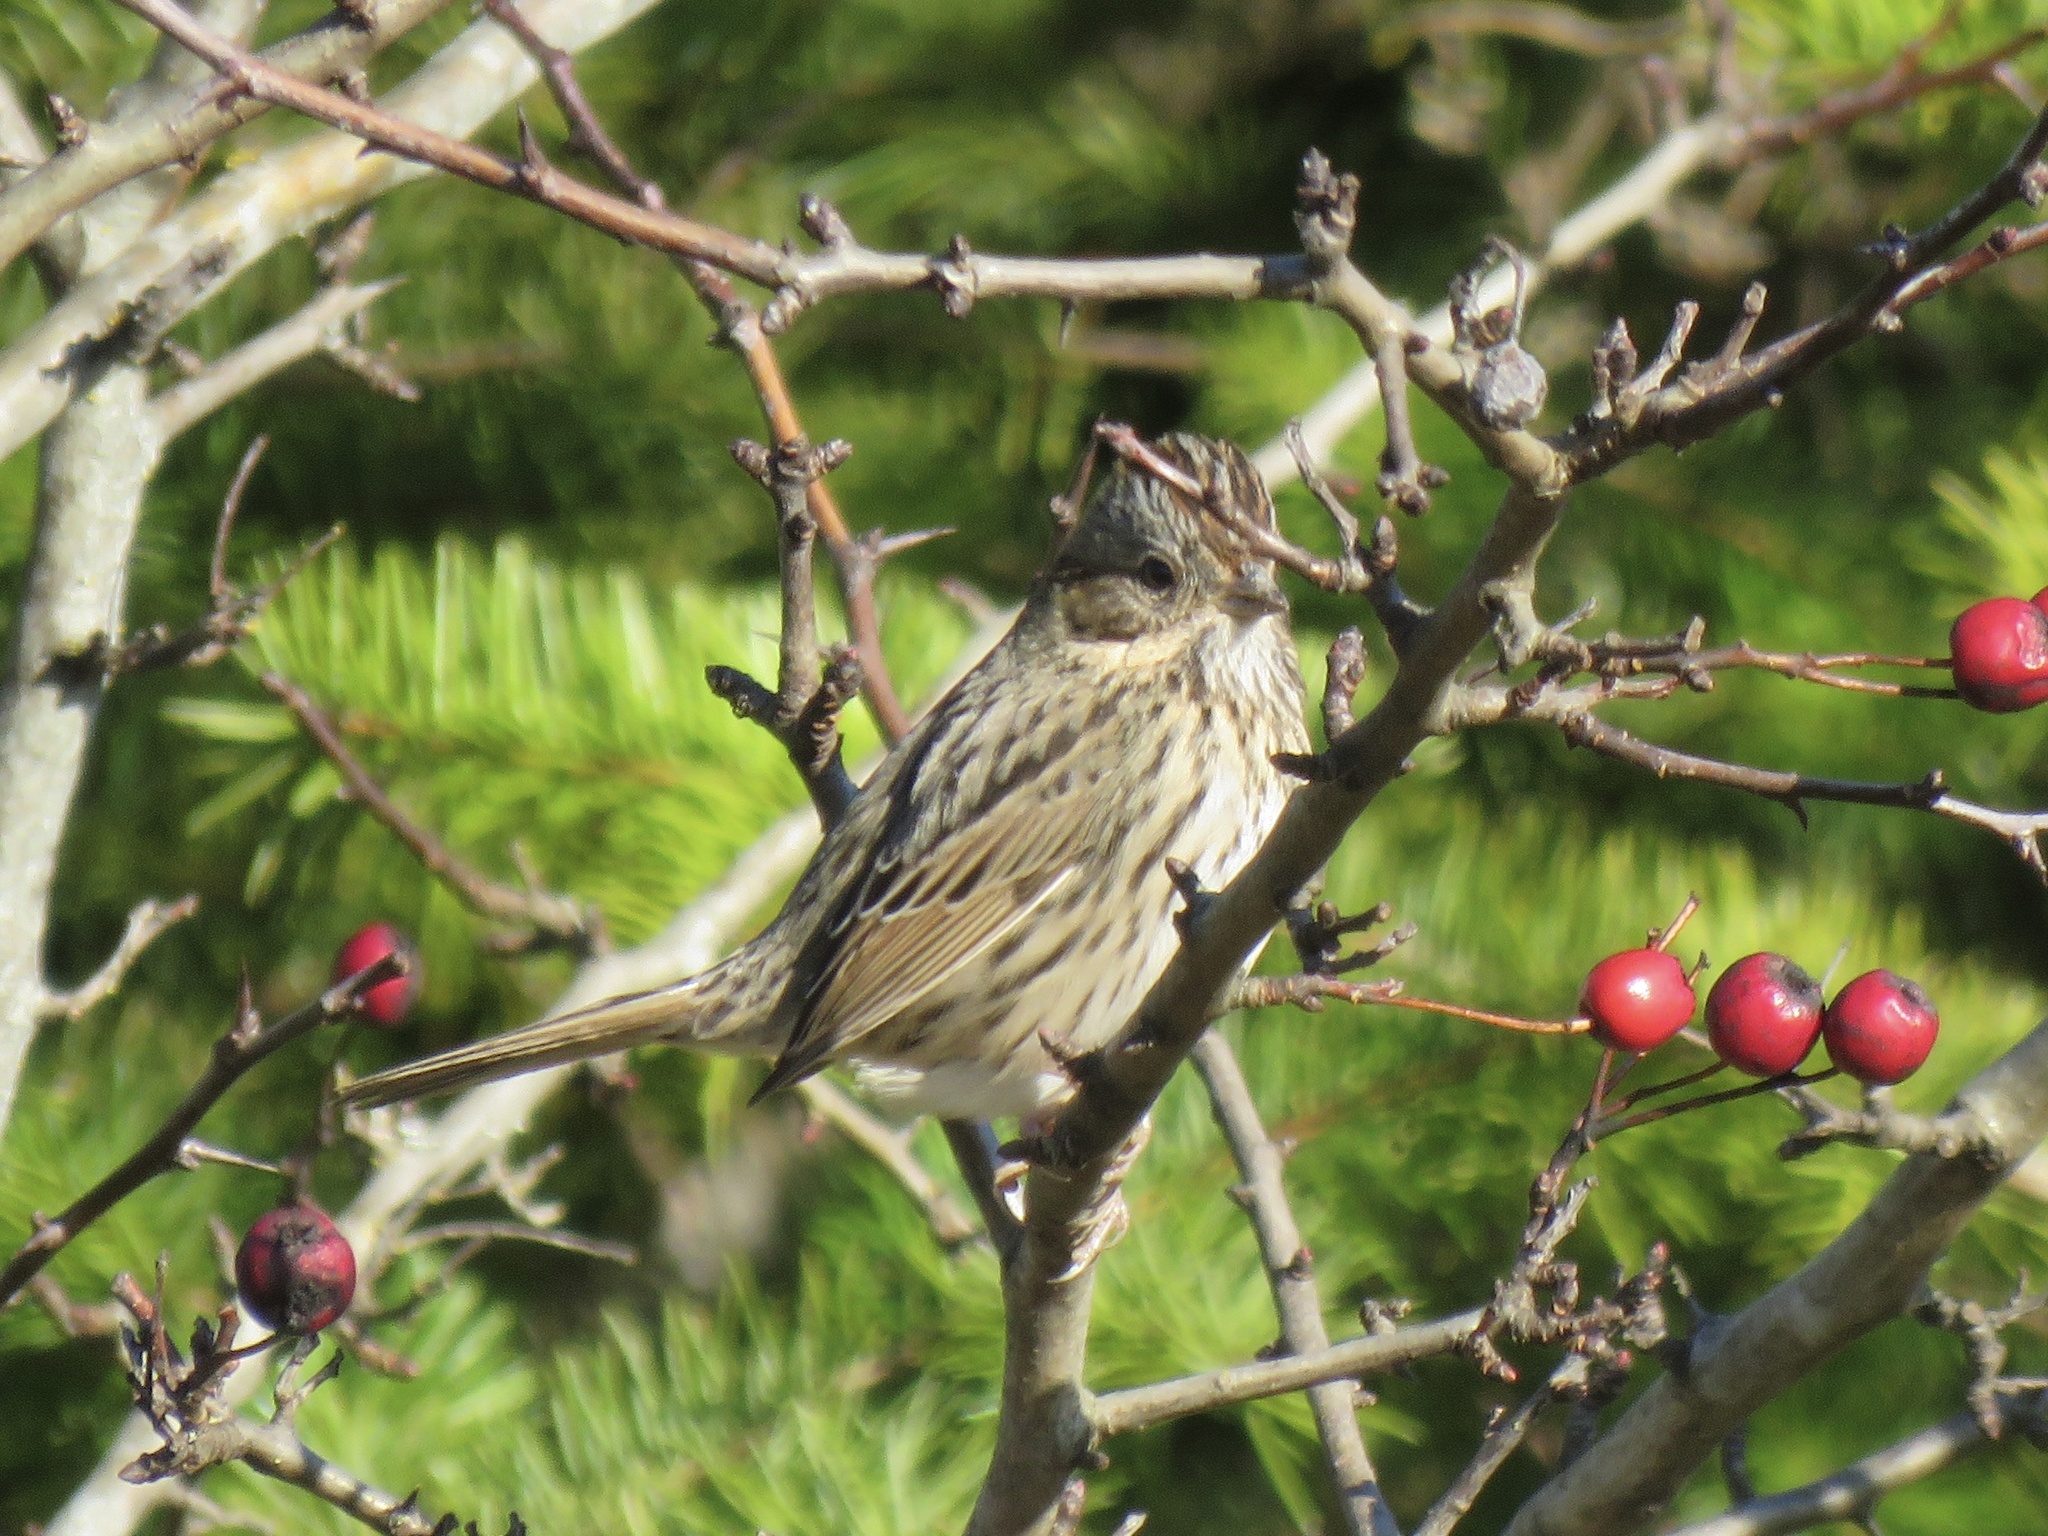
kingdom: Animalia
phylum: Chordata
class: Aves
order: Passeriformes
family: Passerellidae
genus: Melospiza
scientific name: Melospiza lincolnii
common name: Lincoln's sparrow
